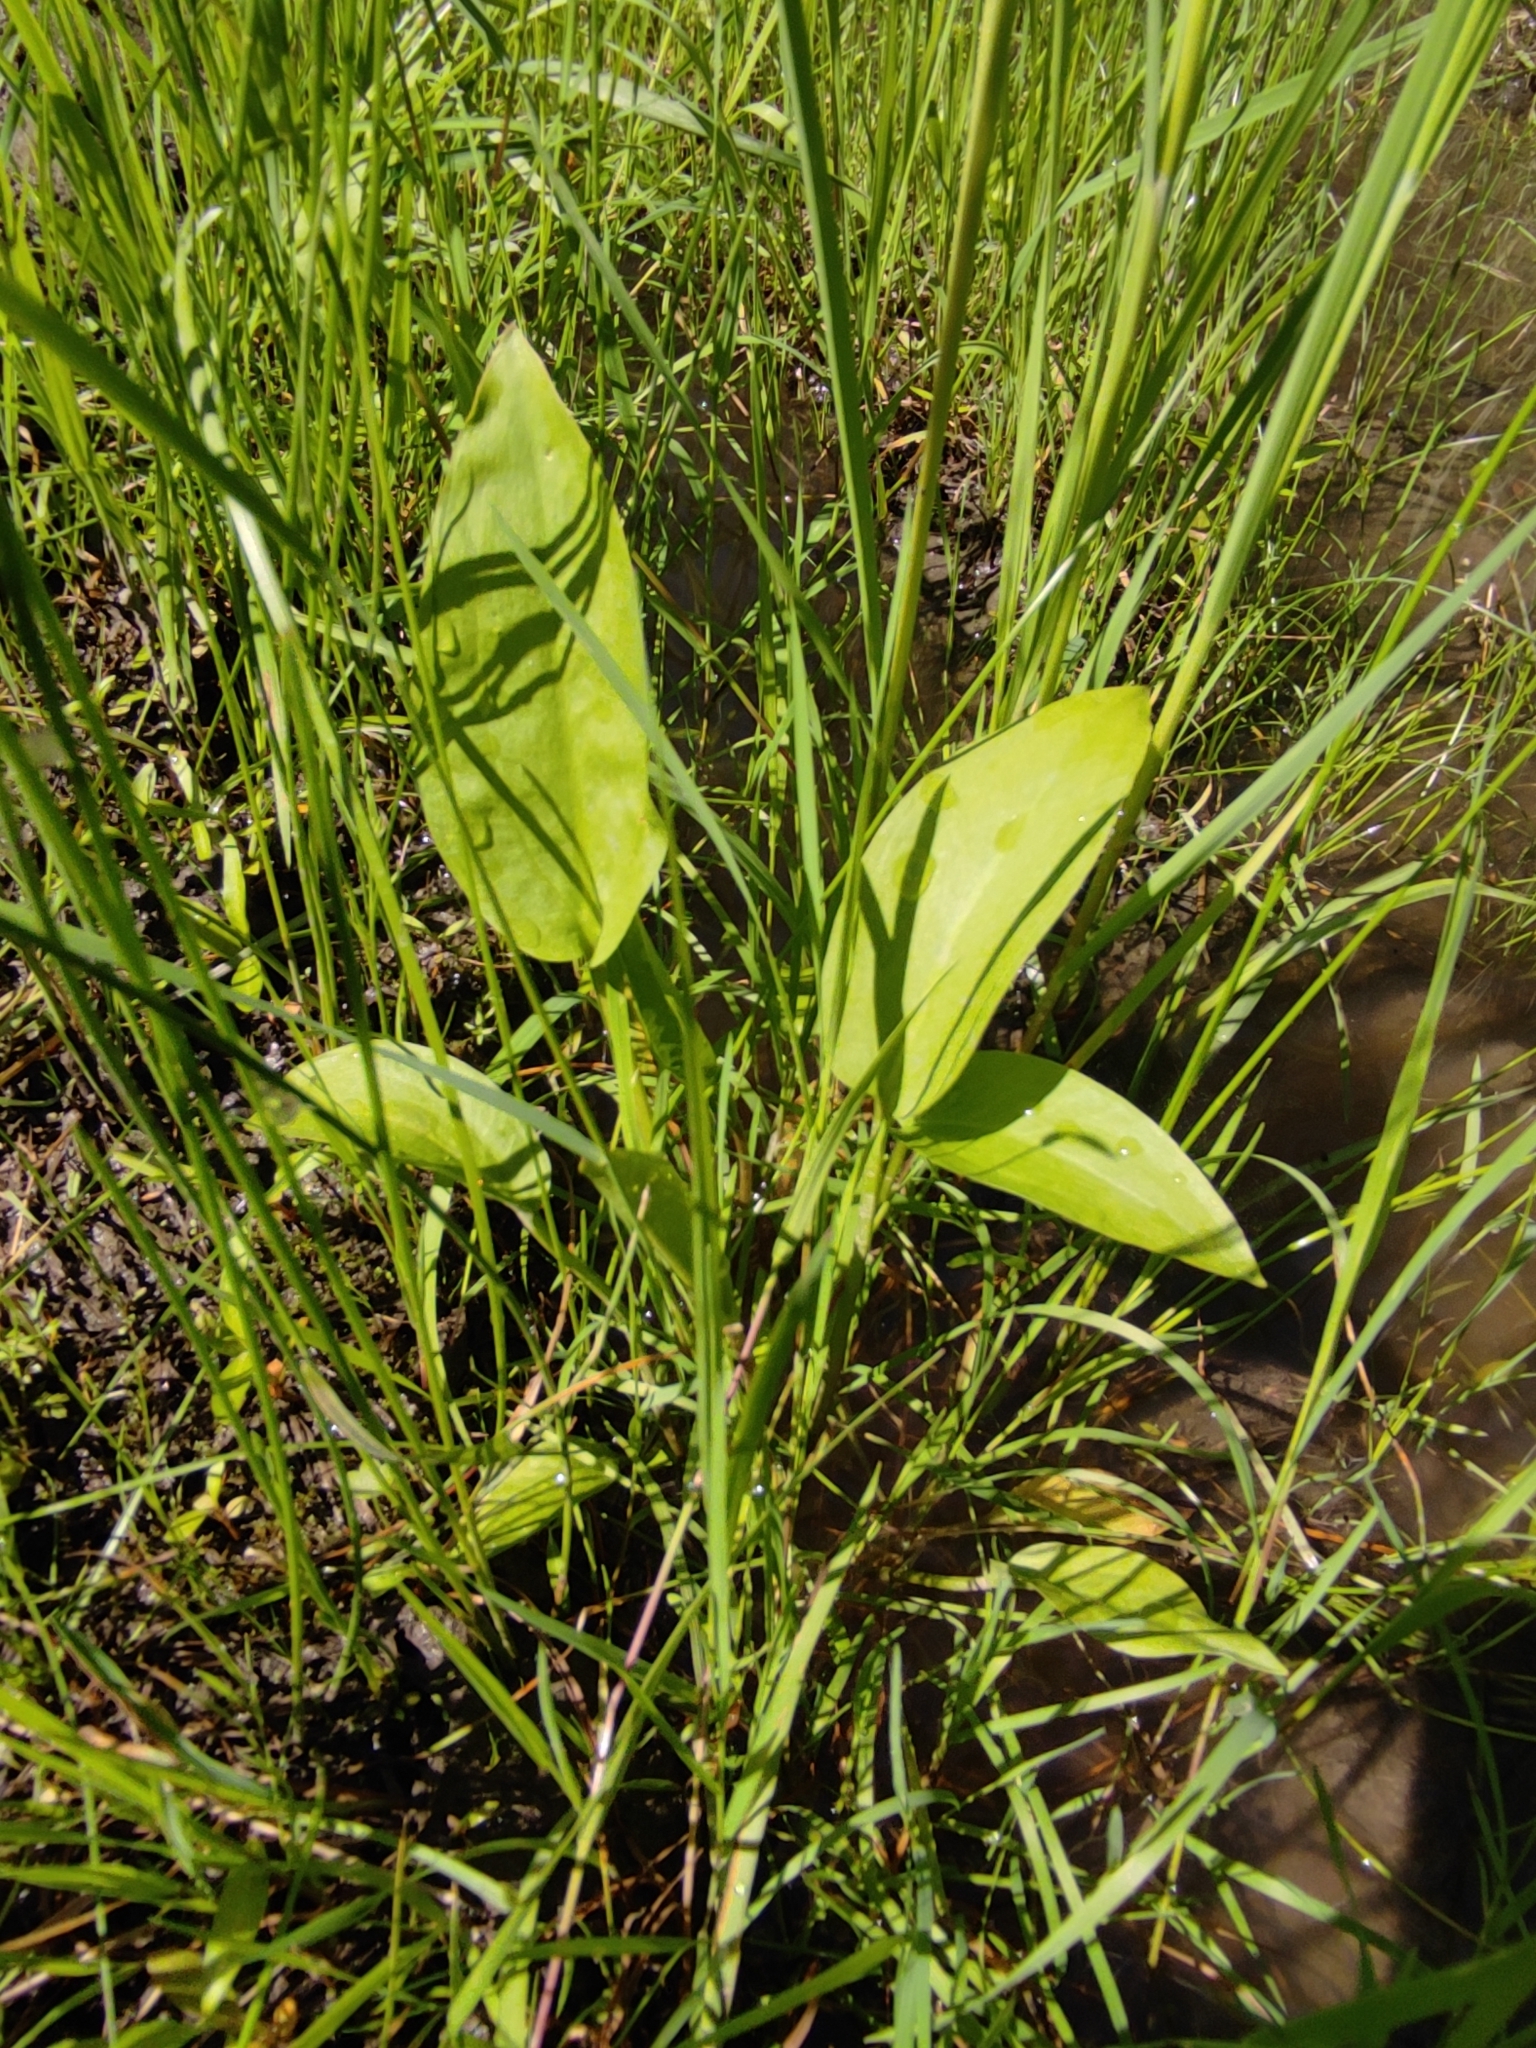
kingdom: Plantae
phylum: Tracheophyta
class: Liliopsida
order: Alismatales
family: Alismataceae
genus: Alisma
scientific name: Alisma plantago-aquatica
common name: Water-plantain
